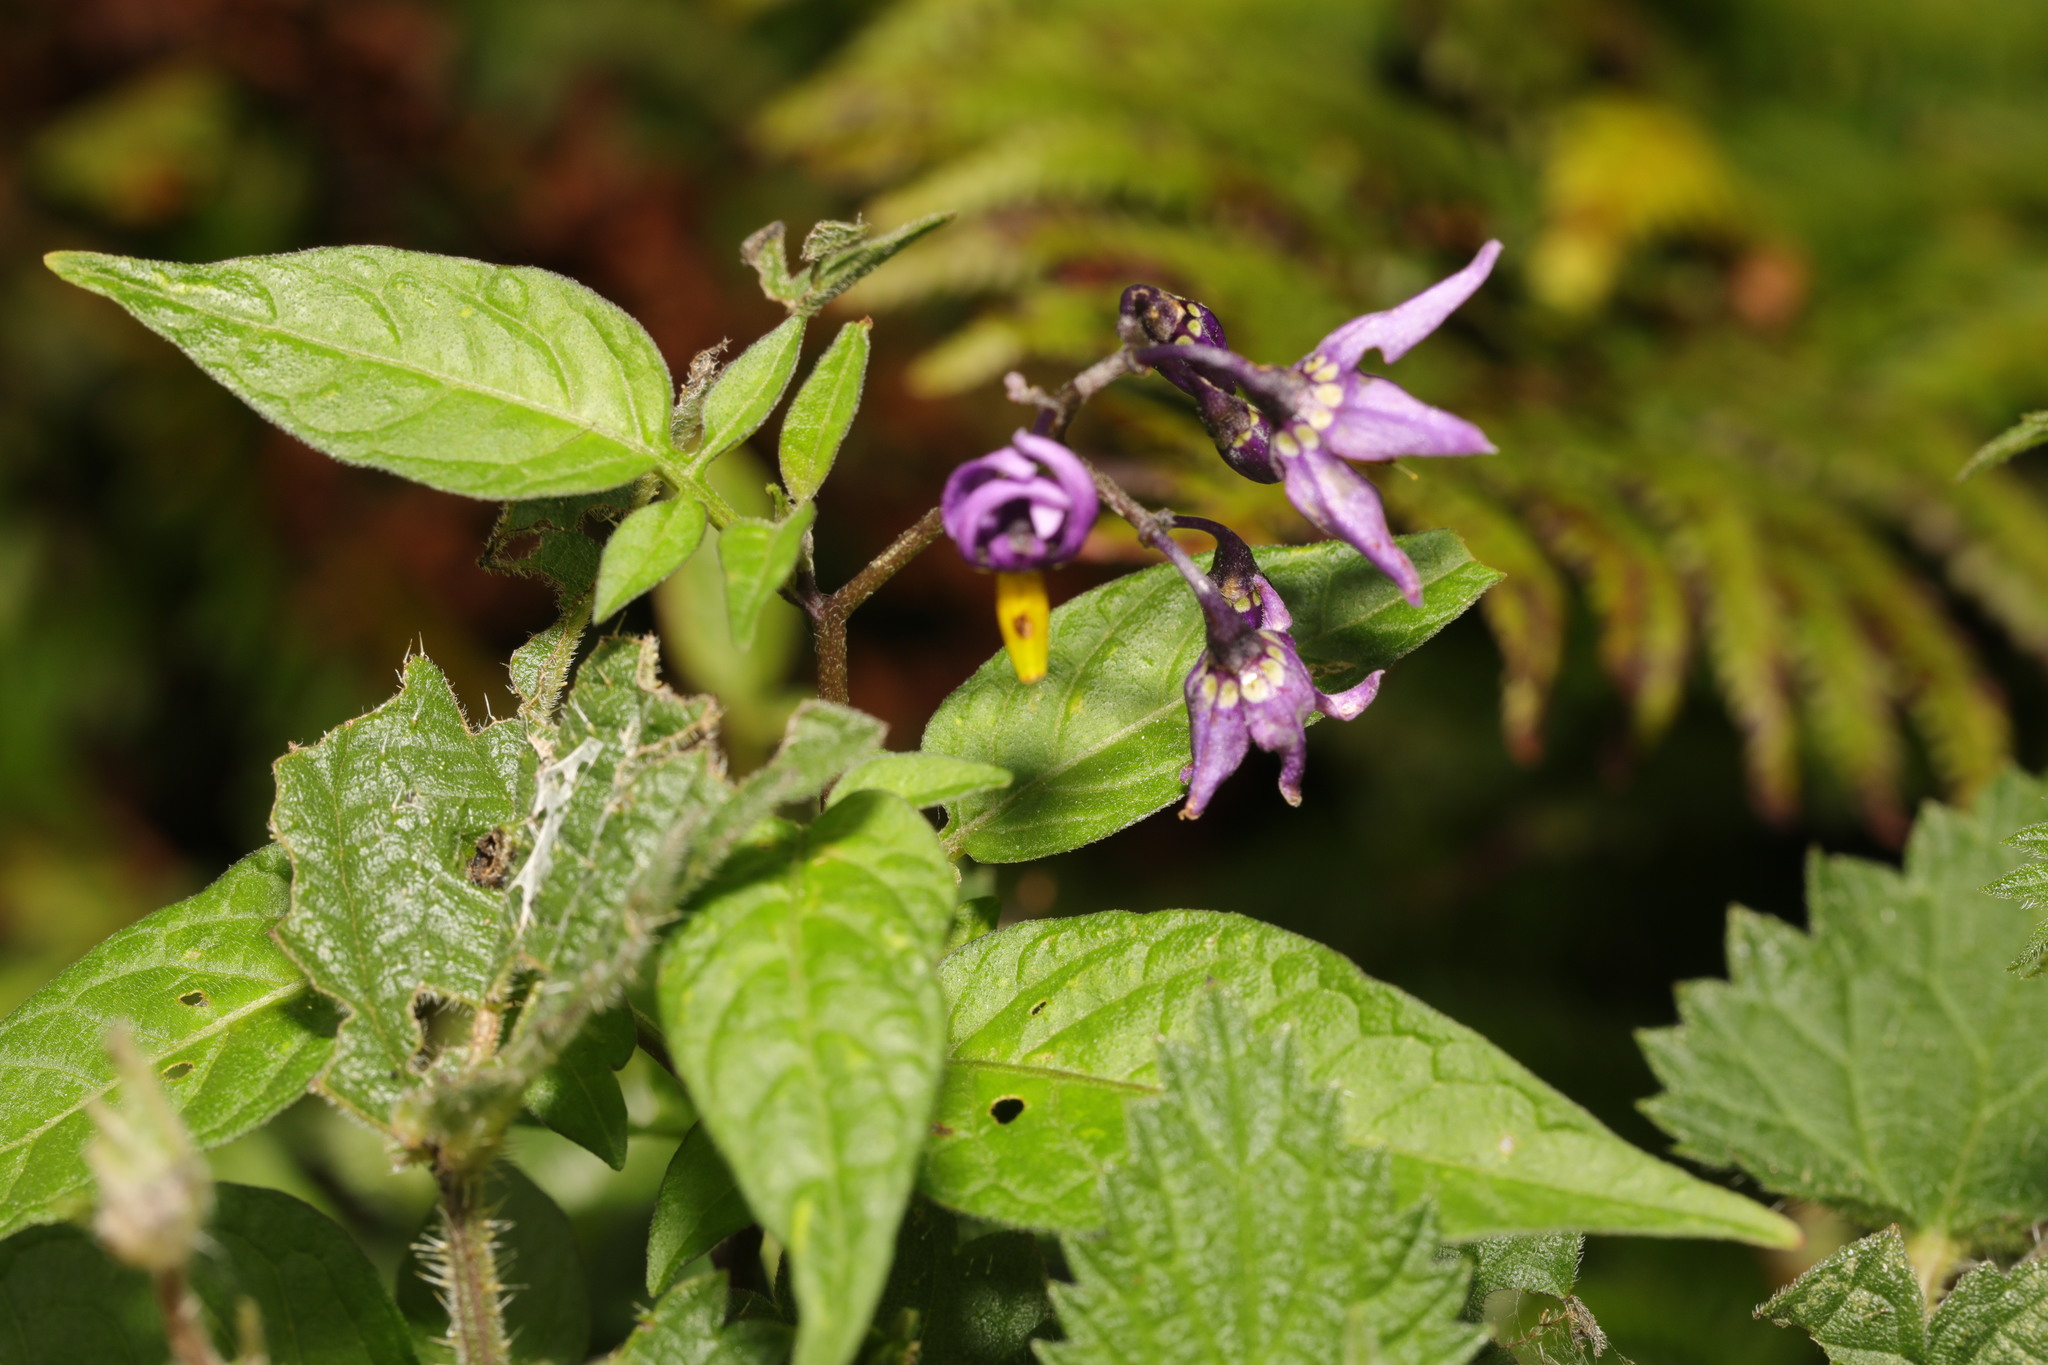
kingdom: Plantae
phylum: Tracheophyta
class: Magnoliopsida
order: Solanales
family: Solanaceae
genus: Solanum
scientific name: Solanum dulcamara
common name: Climbing nightshade
